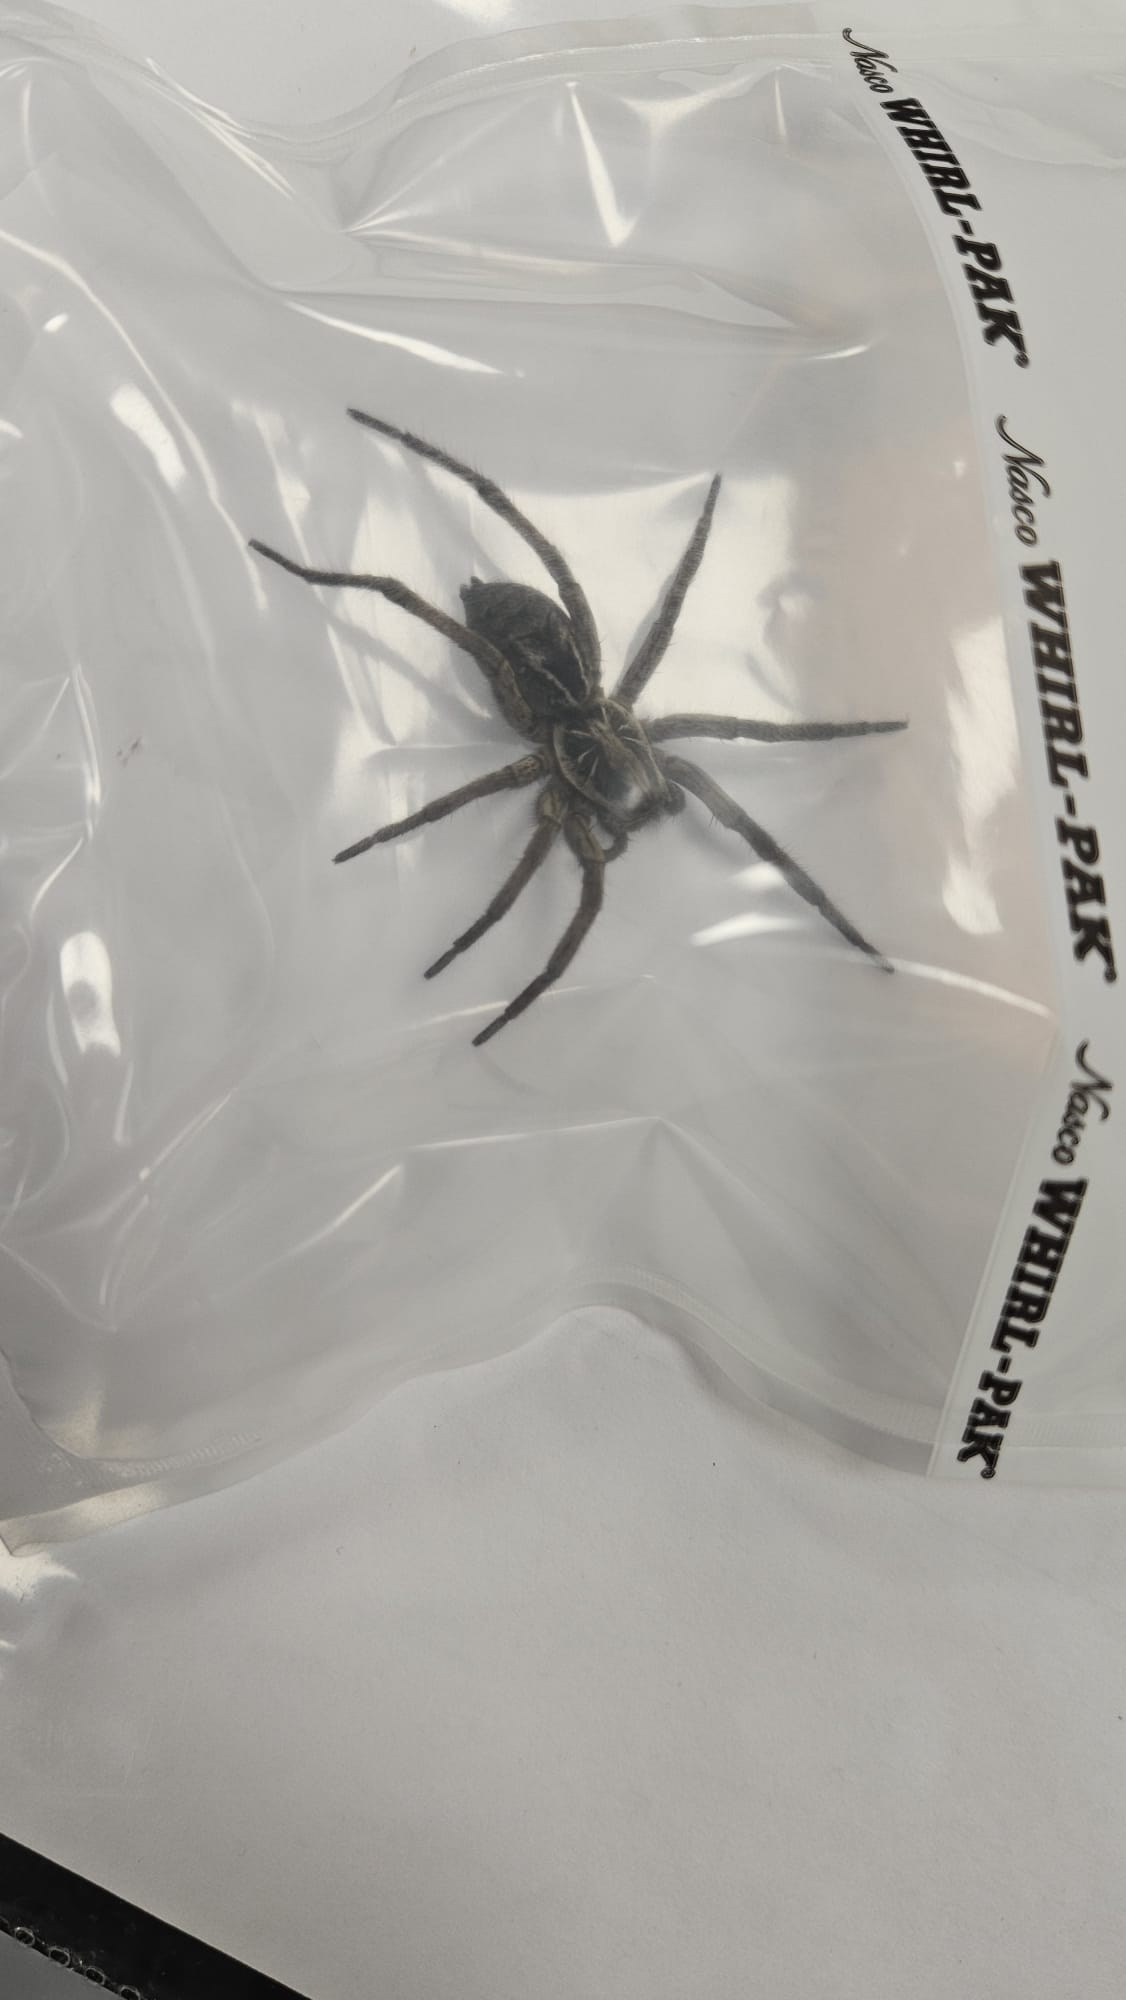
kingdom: Animalia
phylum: Arthropoda
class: Arachnida
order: Araneae
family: Lycosidae
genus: Lycosa
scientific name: Lycosa poliostoma
